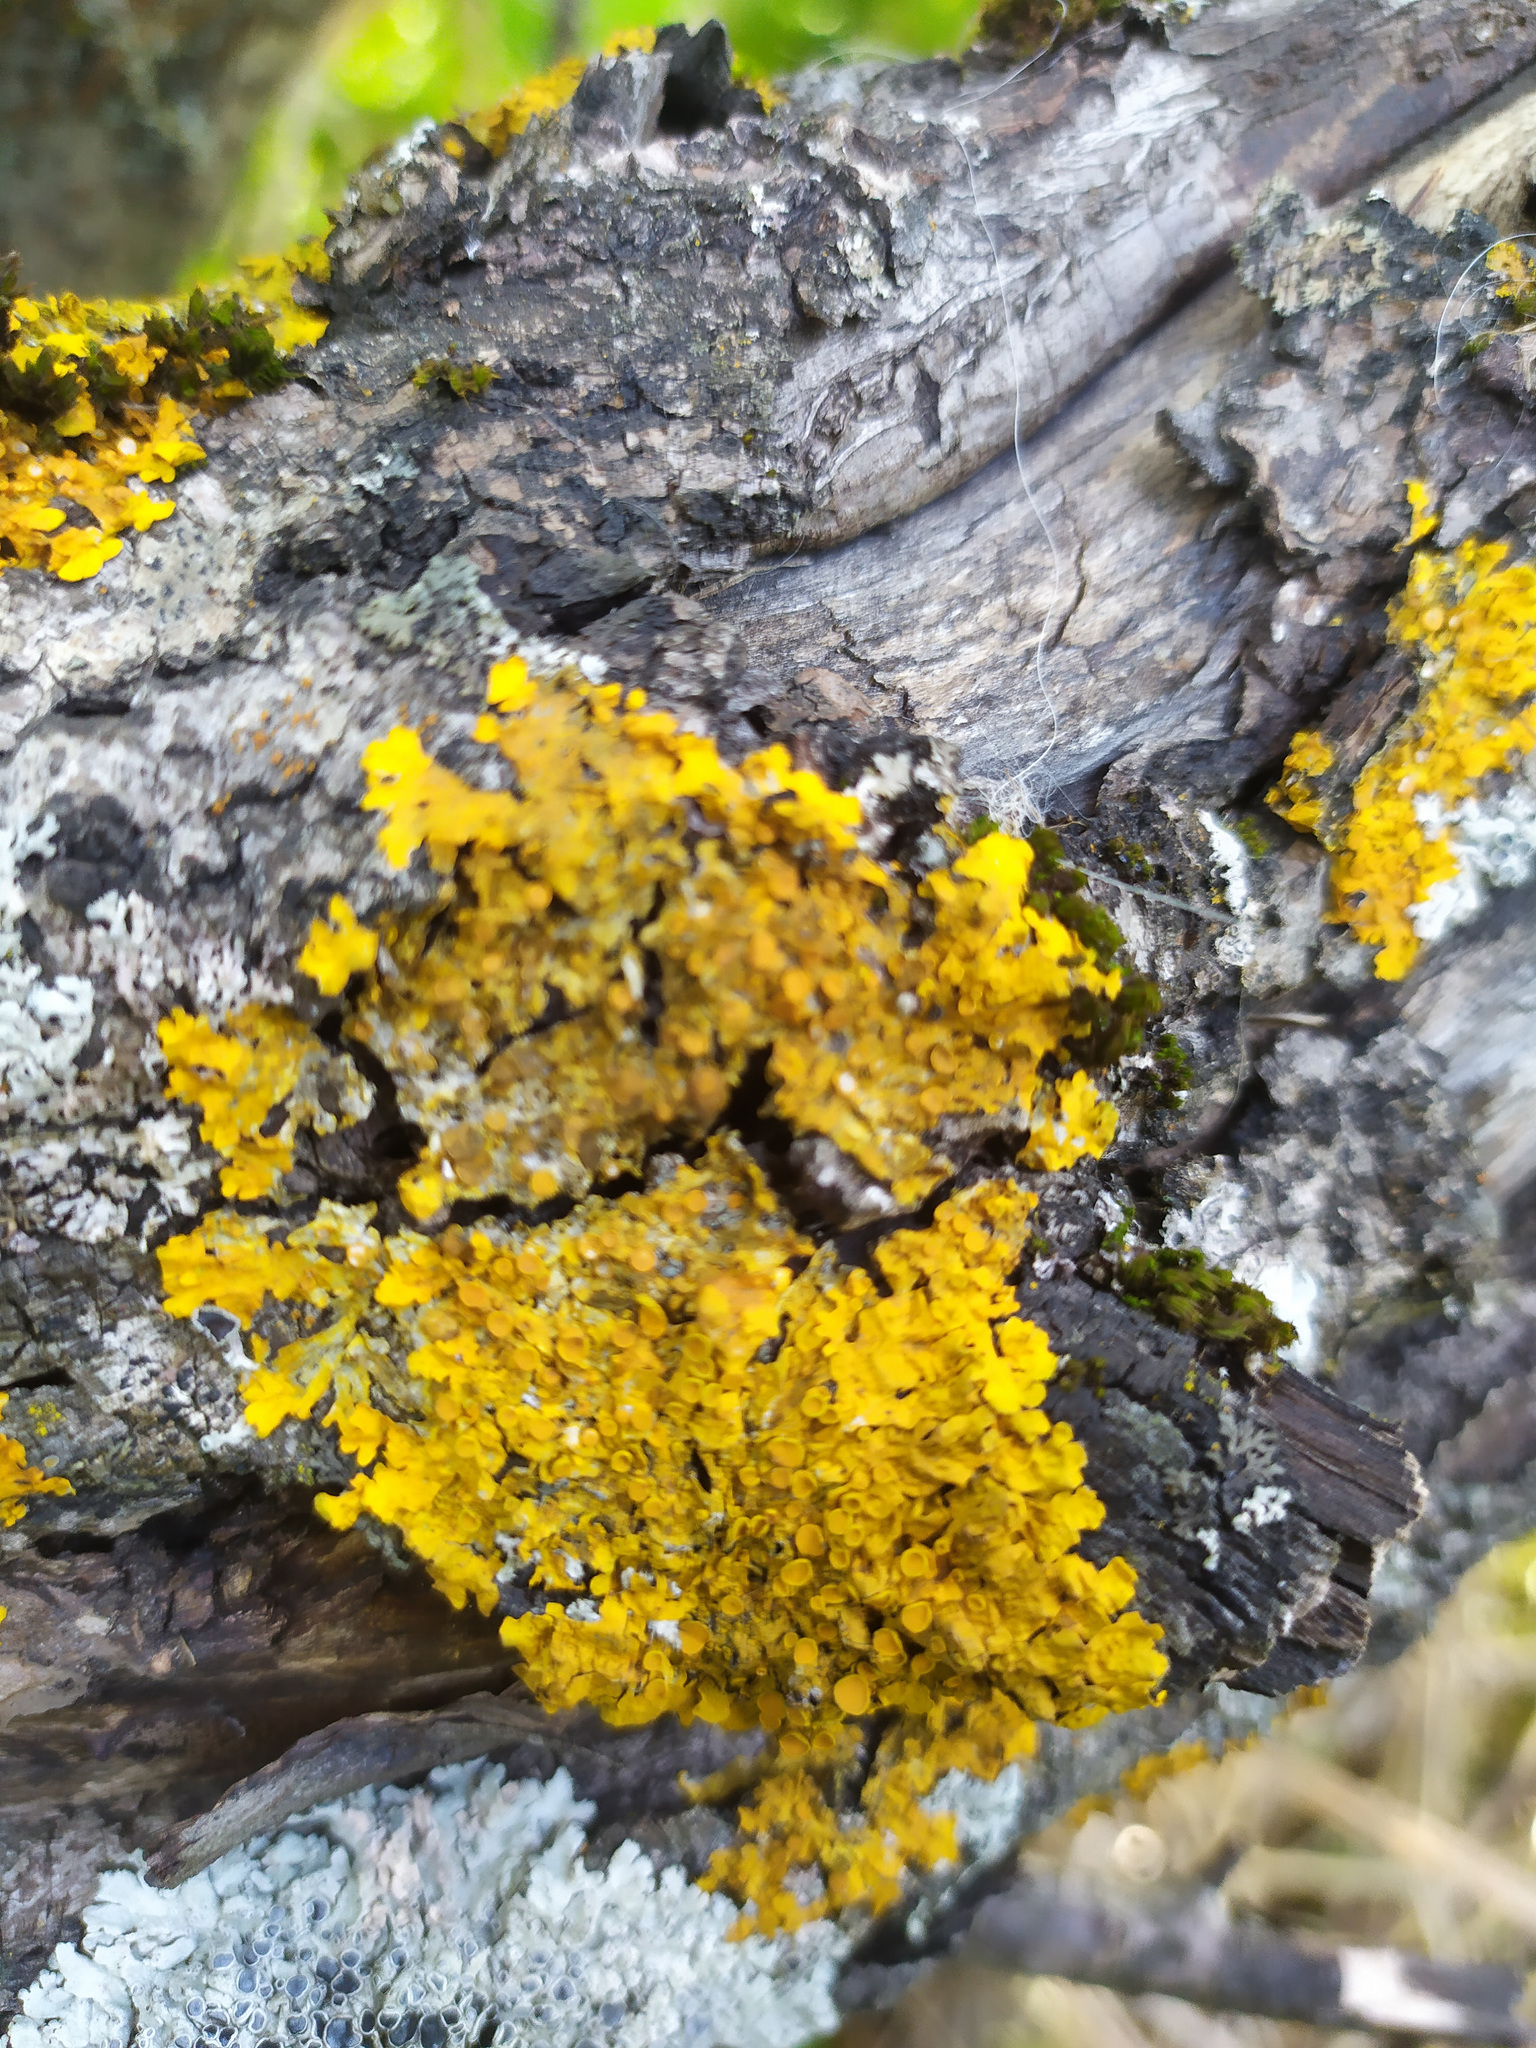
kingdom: Fungi
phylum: Ascomycota
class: Lecanoromycetes
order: Teloschistales
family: Teloschistaceae
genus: Xanthoria
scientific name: Xanthoria parietina
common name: Common orange lichen
